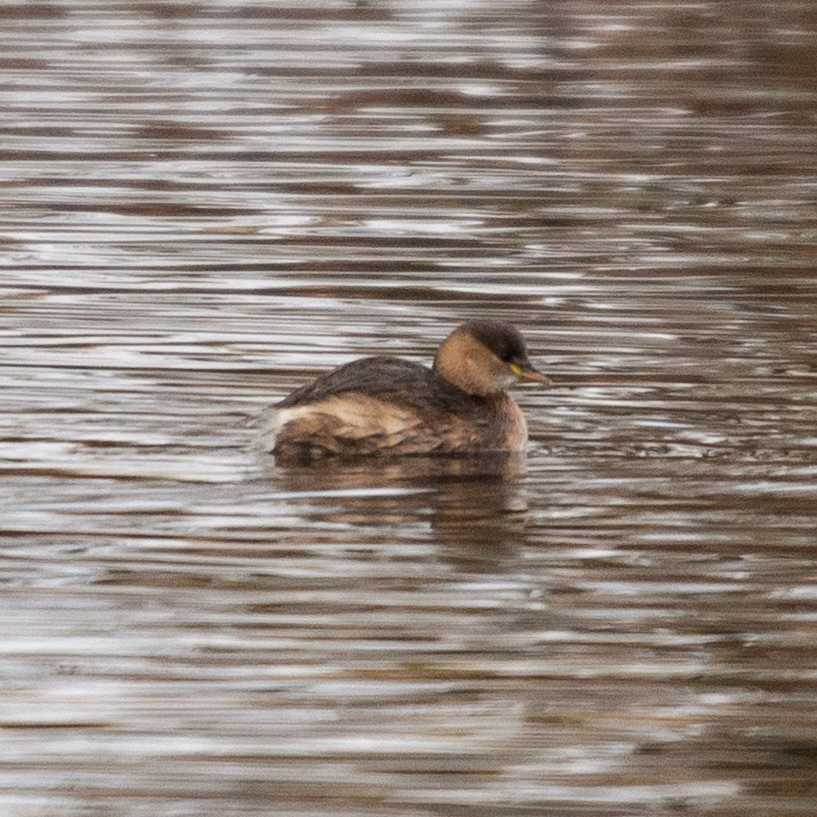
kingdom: Animalia
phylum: Chordata
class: Aves
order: Podicipediformes
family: Podicipedidae
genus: Tachybaptus
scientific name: Tachybaptus ruficollis
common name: Little grebe
